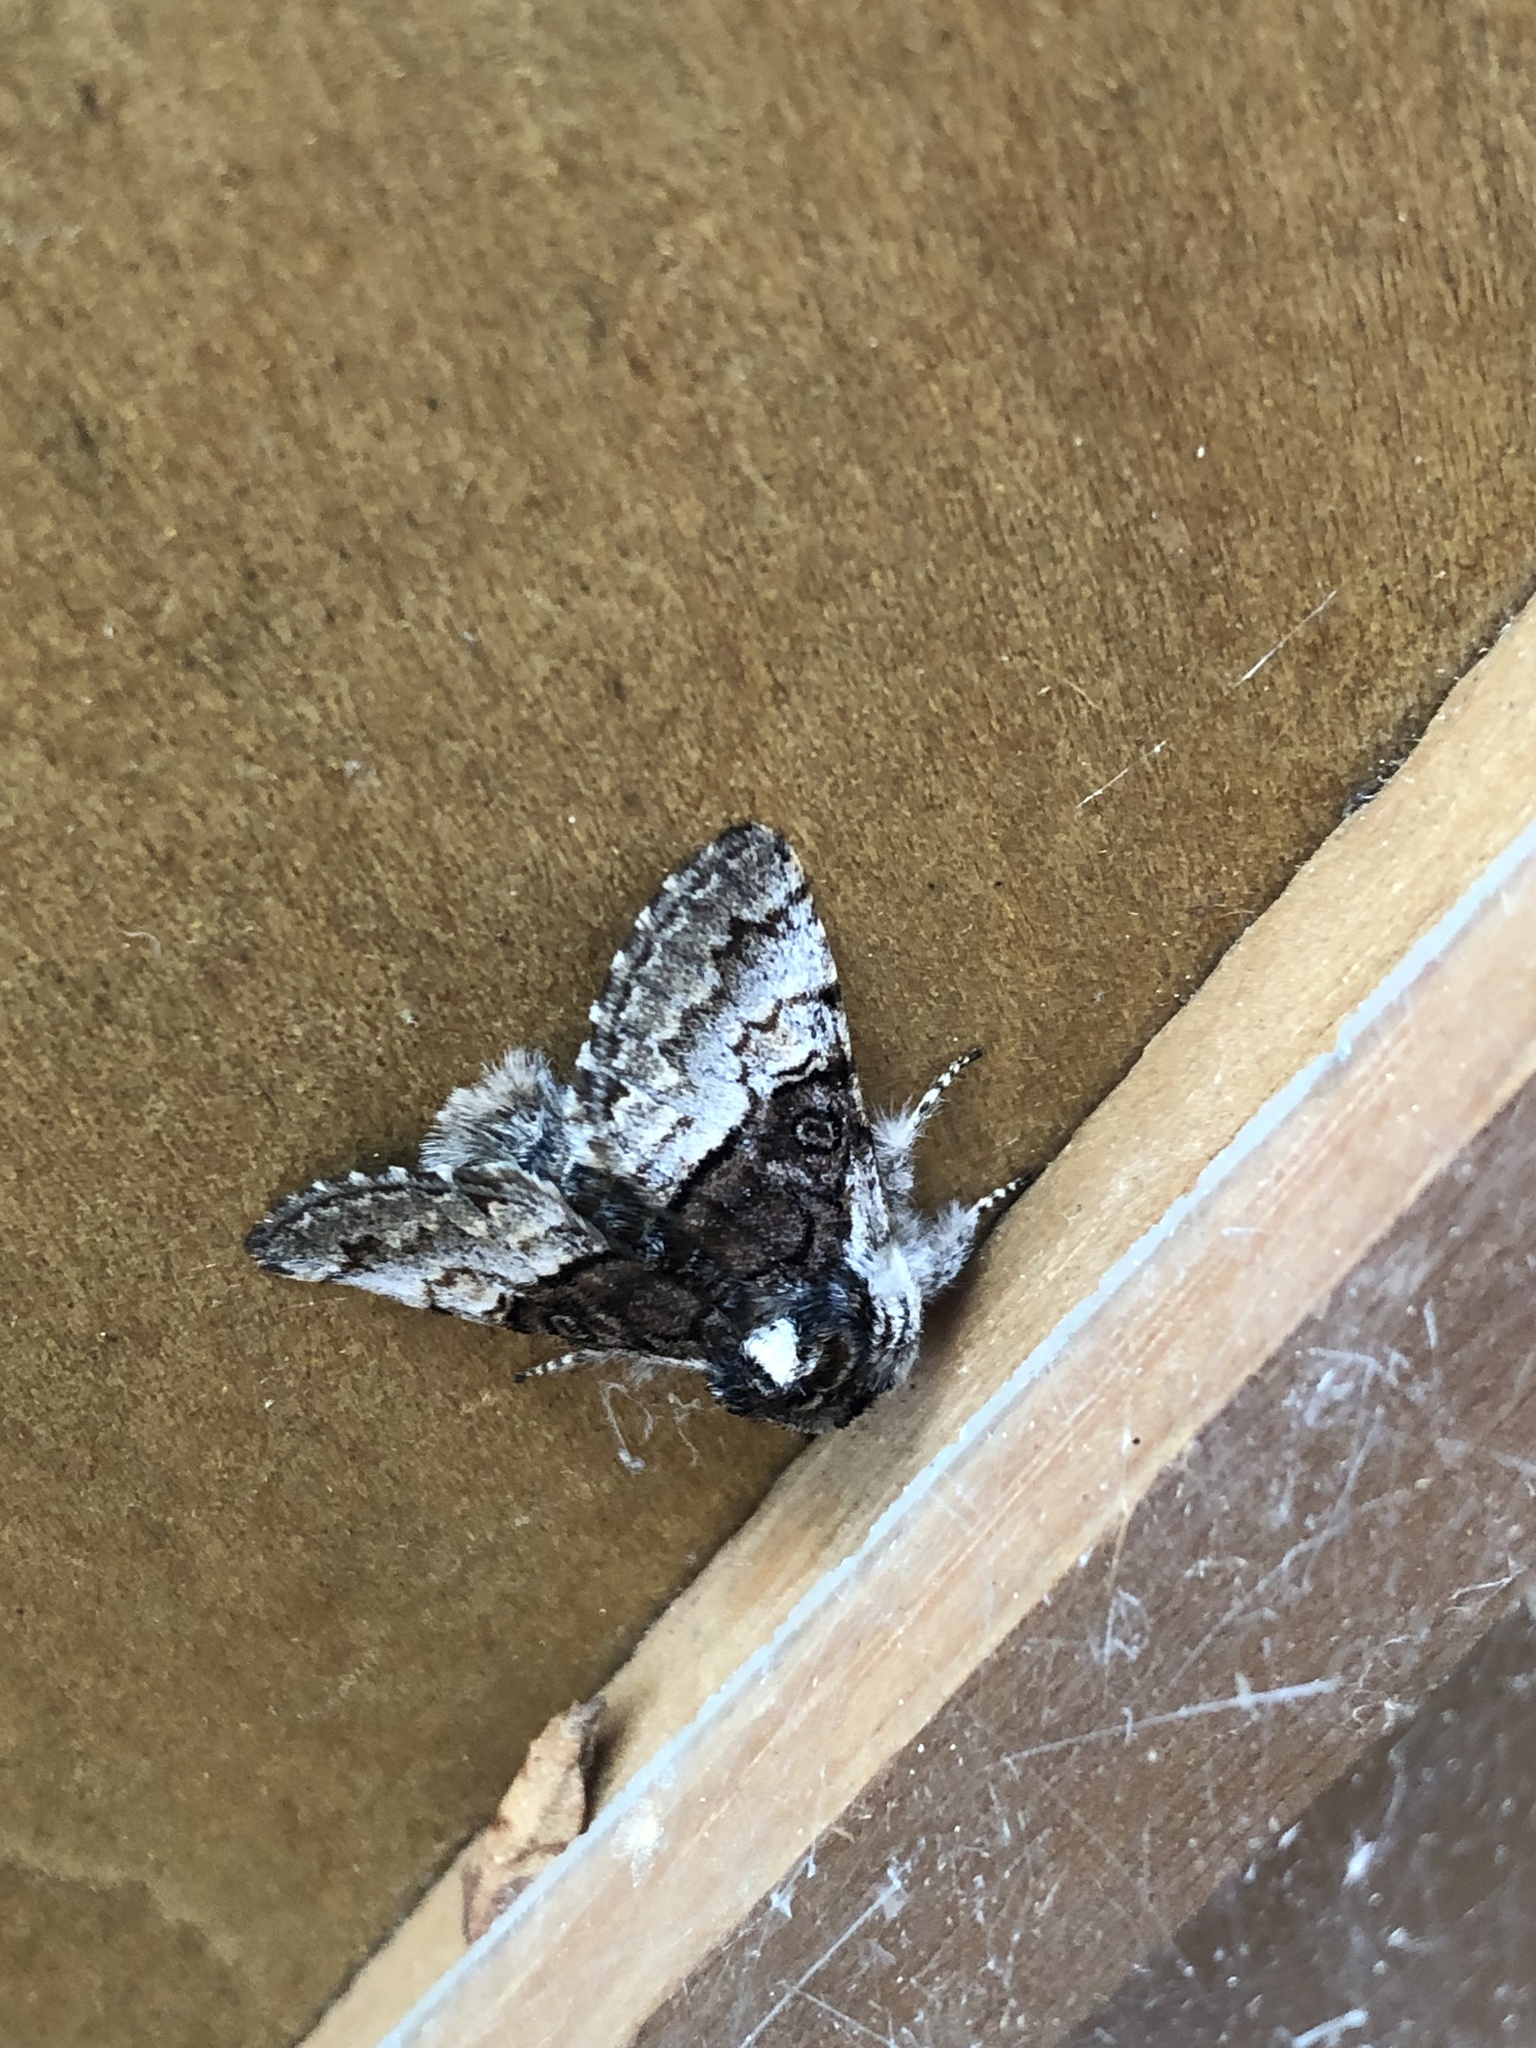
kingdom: Animalia
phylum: Arthropoda
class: Insecta
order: Lepidoptera
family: Noctuidae
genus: Colocasia
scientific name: Colocasia coryli
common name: Nut-tree tussock
